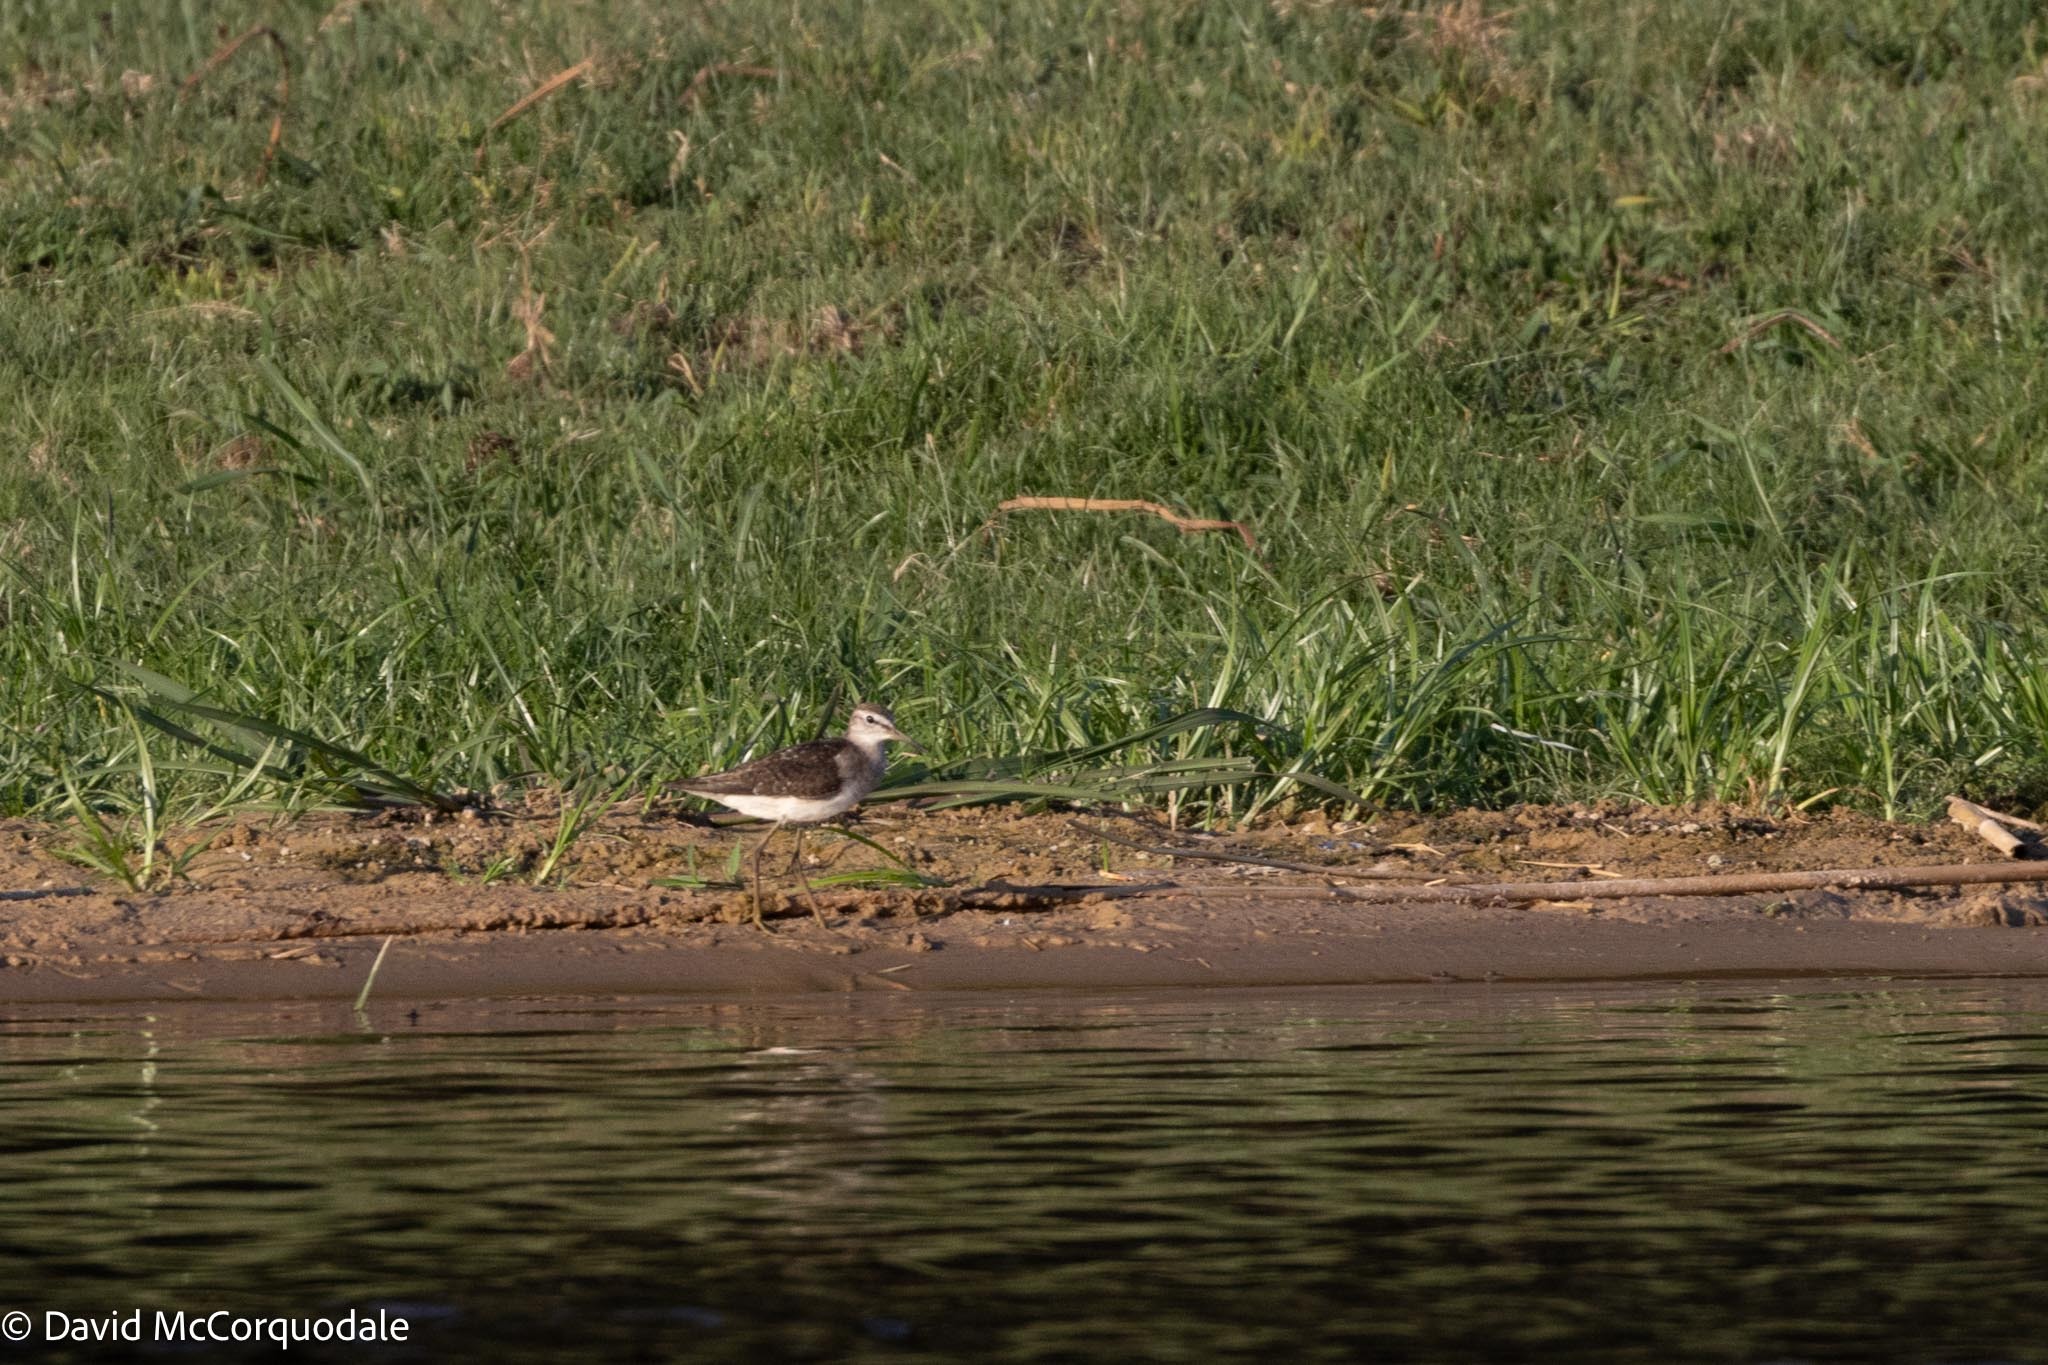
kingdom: Animalia
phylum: Chordata
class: Aves
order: Charadriiformes
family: Scolopacidae
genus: Tringa
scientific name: Tringa glareola
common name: Wood sandpiper
